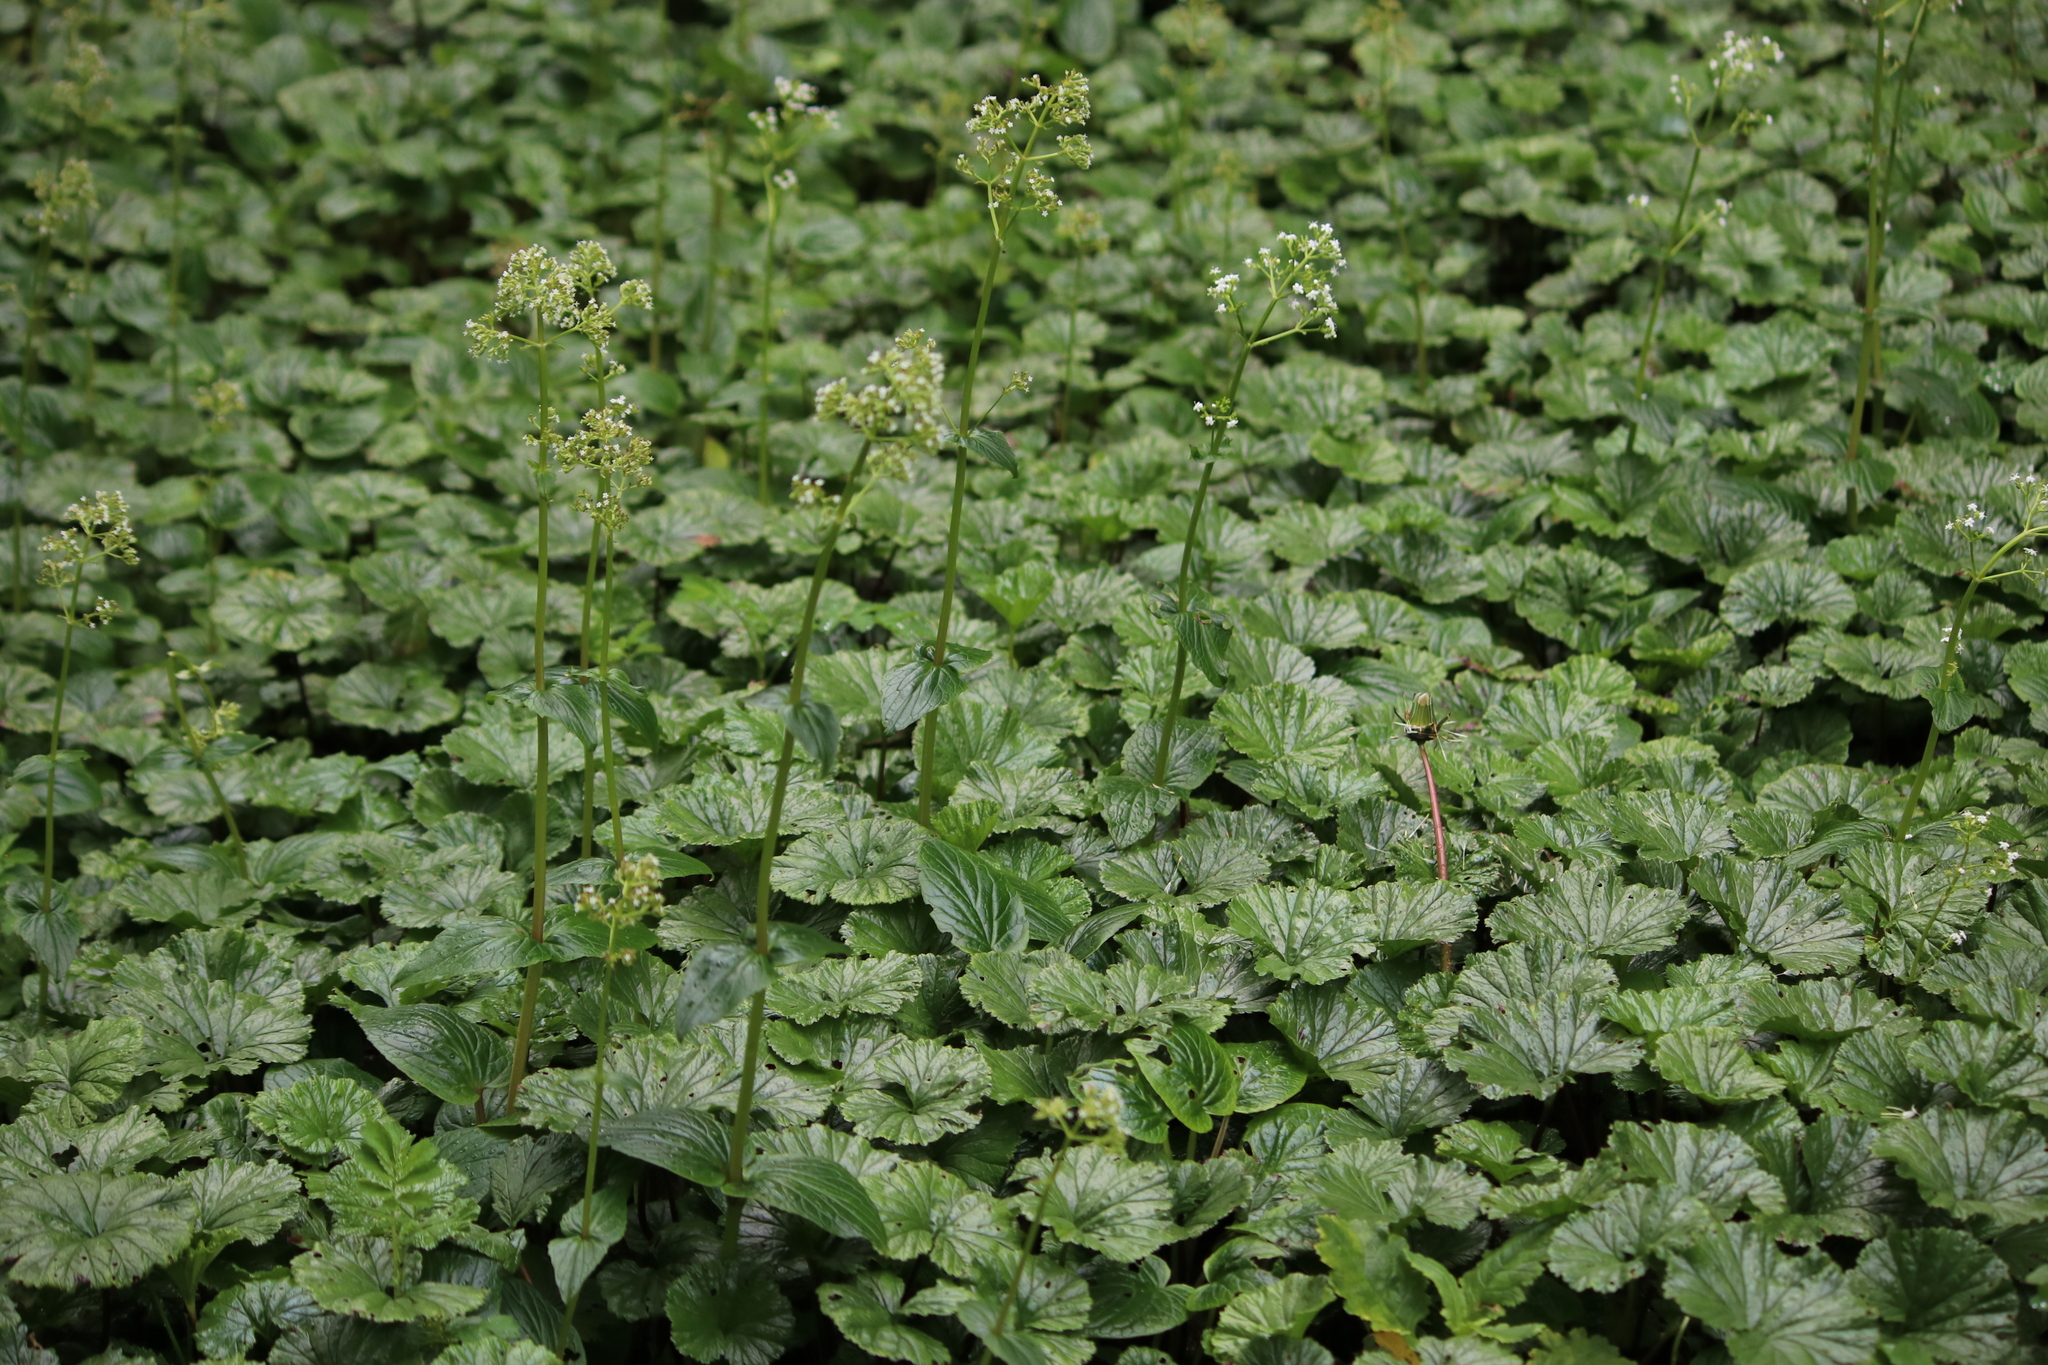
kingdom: Plantae
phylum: Tracheophyta
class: Magnoliopsida
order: Dipsacales
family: Caprifoliaceae
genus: Valeriana
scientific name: Valeriana lapathifolia
